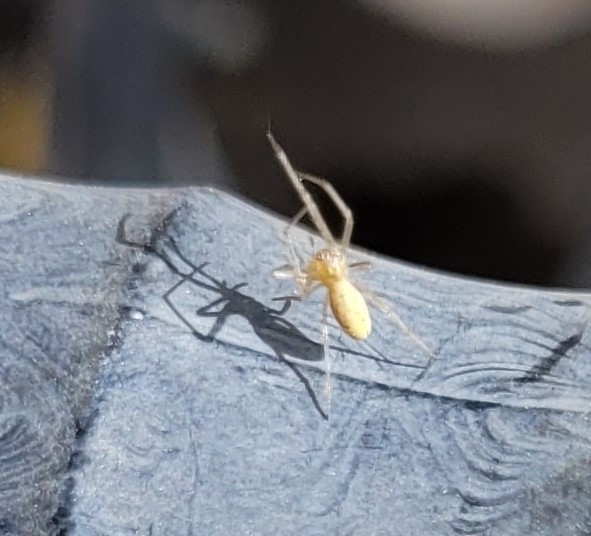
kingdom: Animalia
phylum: Arthropoda
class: Arachnida
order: Araneae
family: Cheiracanthiidae
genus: Cheiracanthium
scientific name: Cheiracanthium inclusum
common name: Long-legged sac spiders
